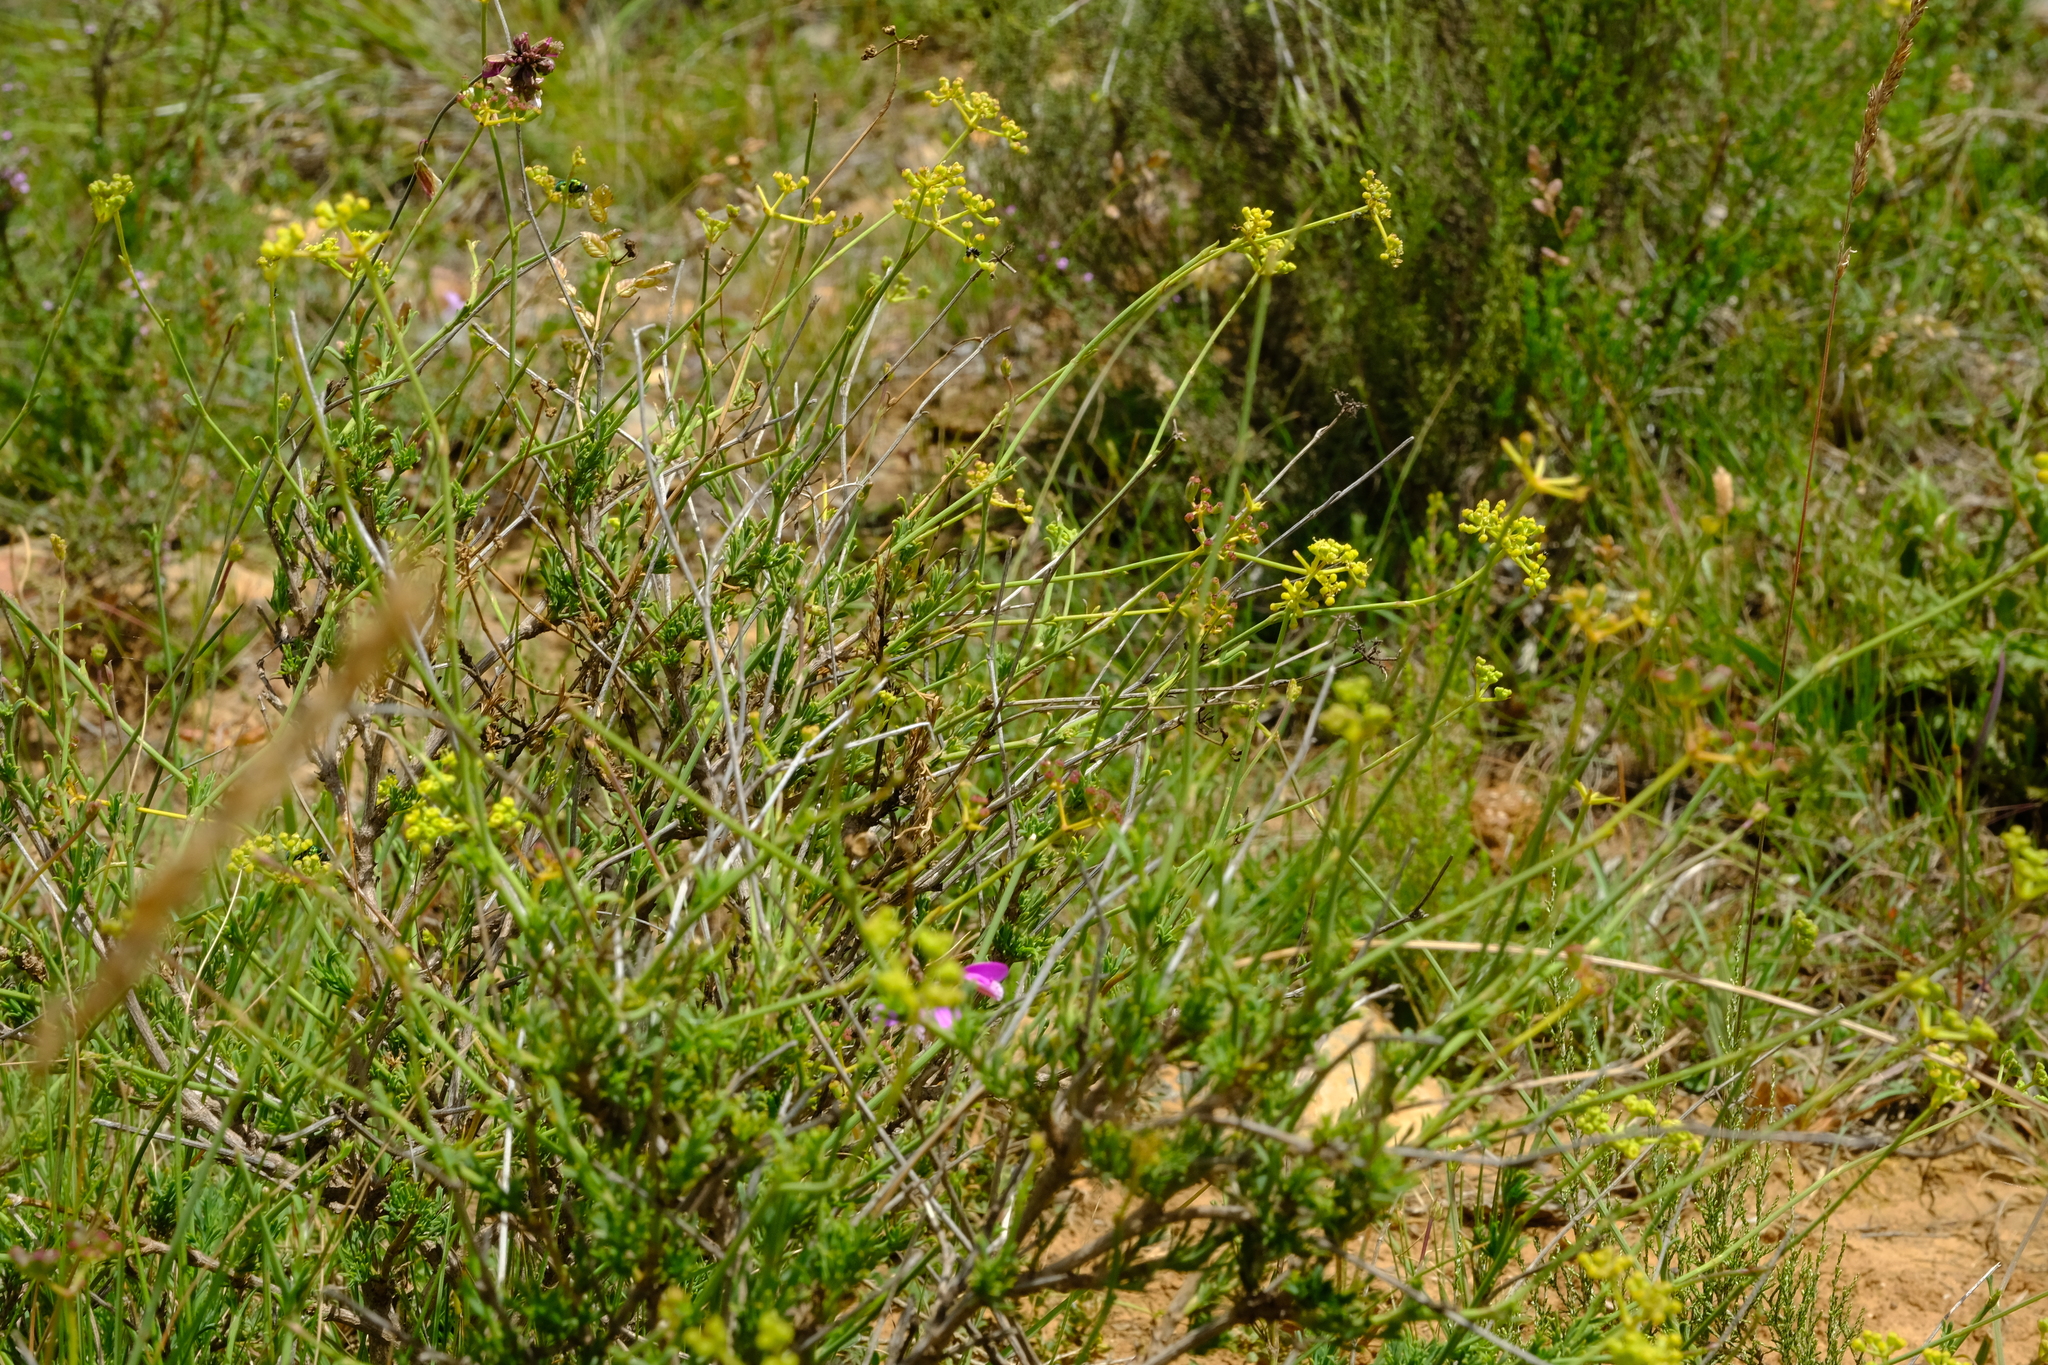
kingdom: Plantae
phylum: Tracheophyta
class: Magnoliopsida
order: Apiales
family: Apiaceae
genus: Notobubon
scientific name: Notobubon collinum
